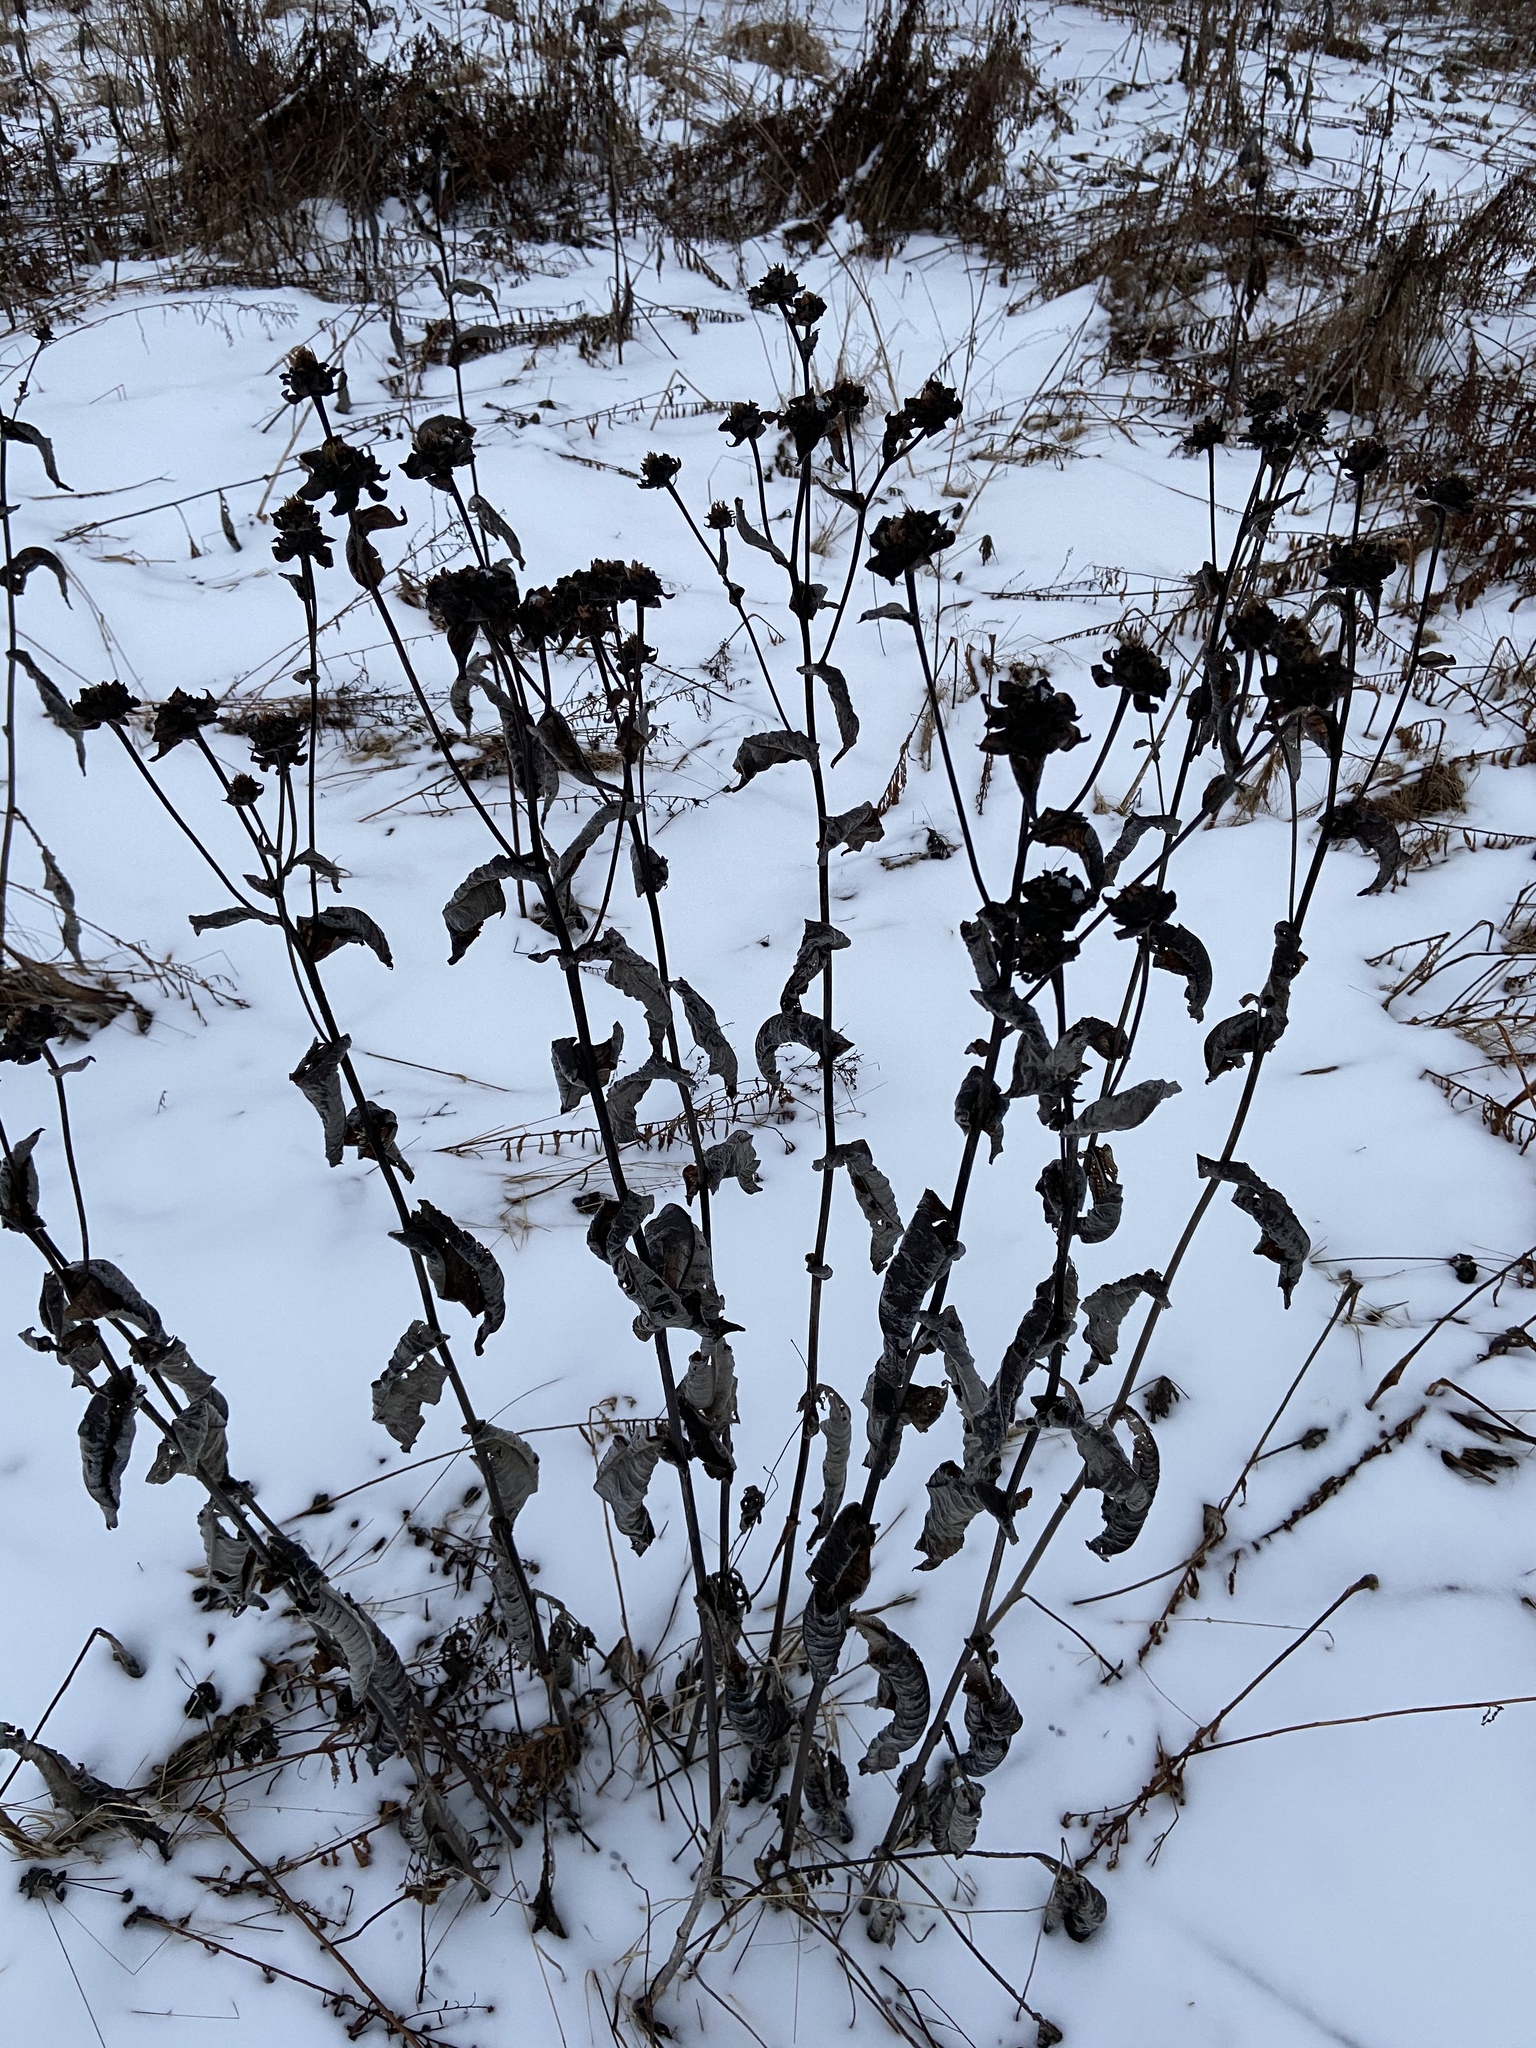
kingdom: Plantae
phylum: Tracheophyta
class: Magnoliopsida
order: Asterales
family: Asteraceae
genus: Inula
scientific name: Inula helenium
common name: Elecampane
